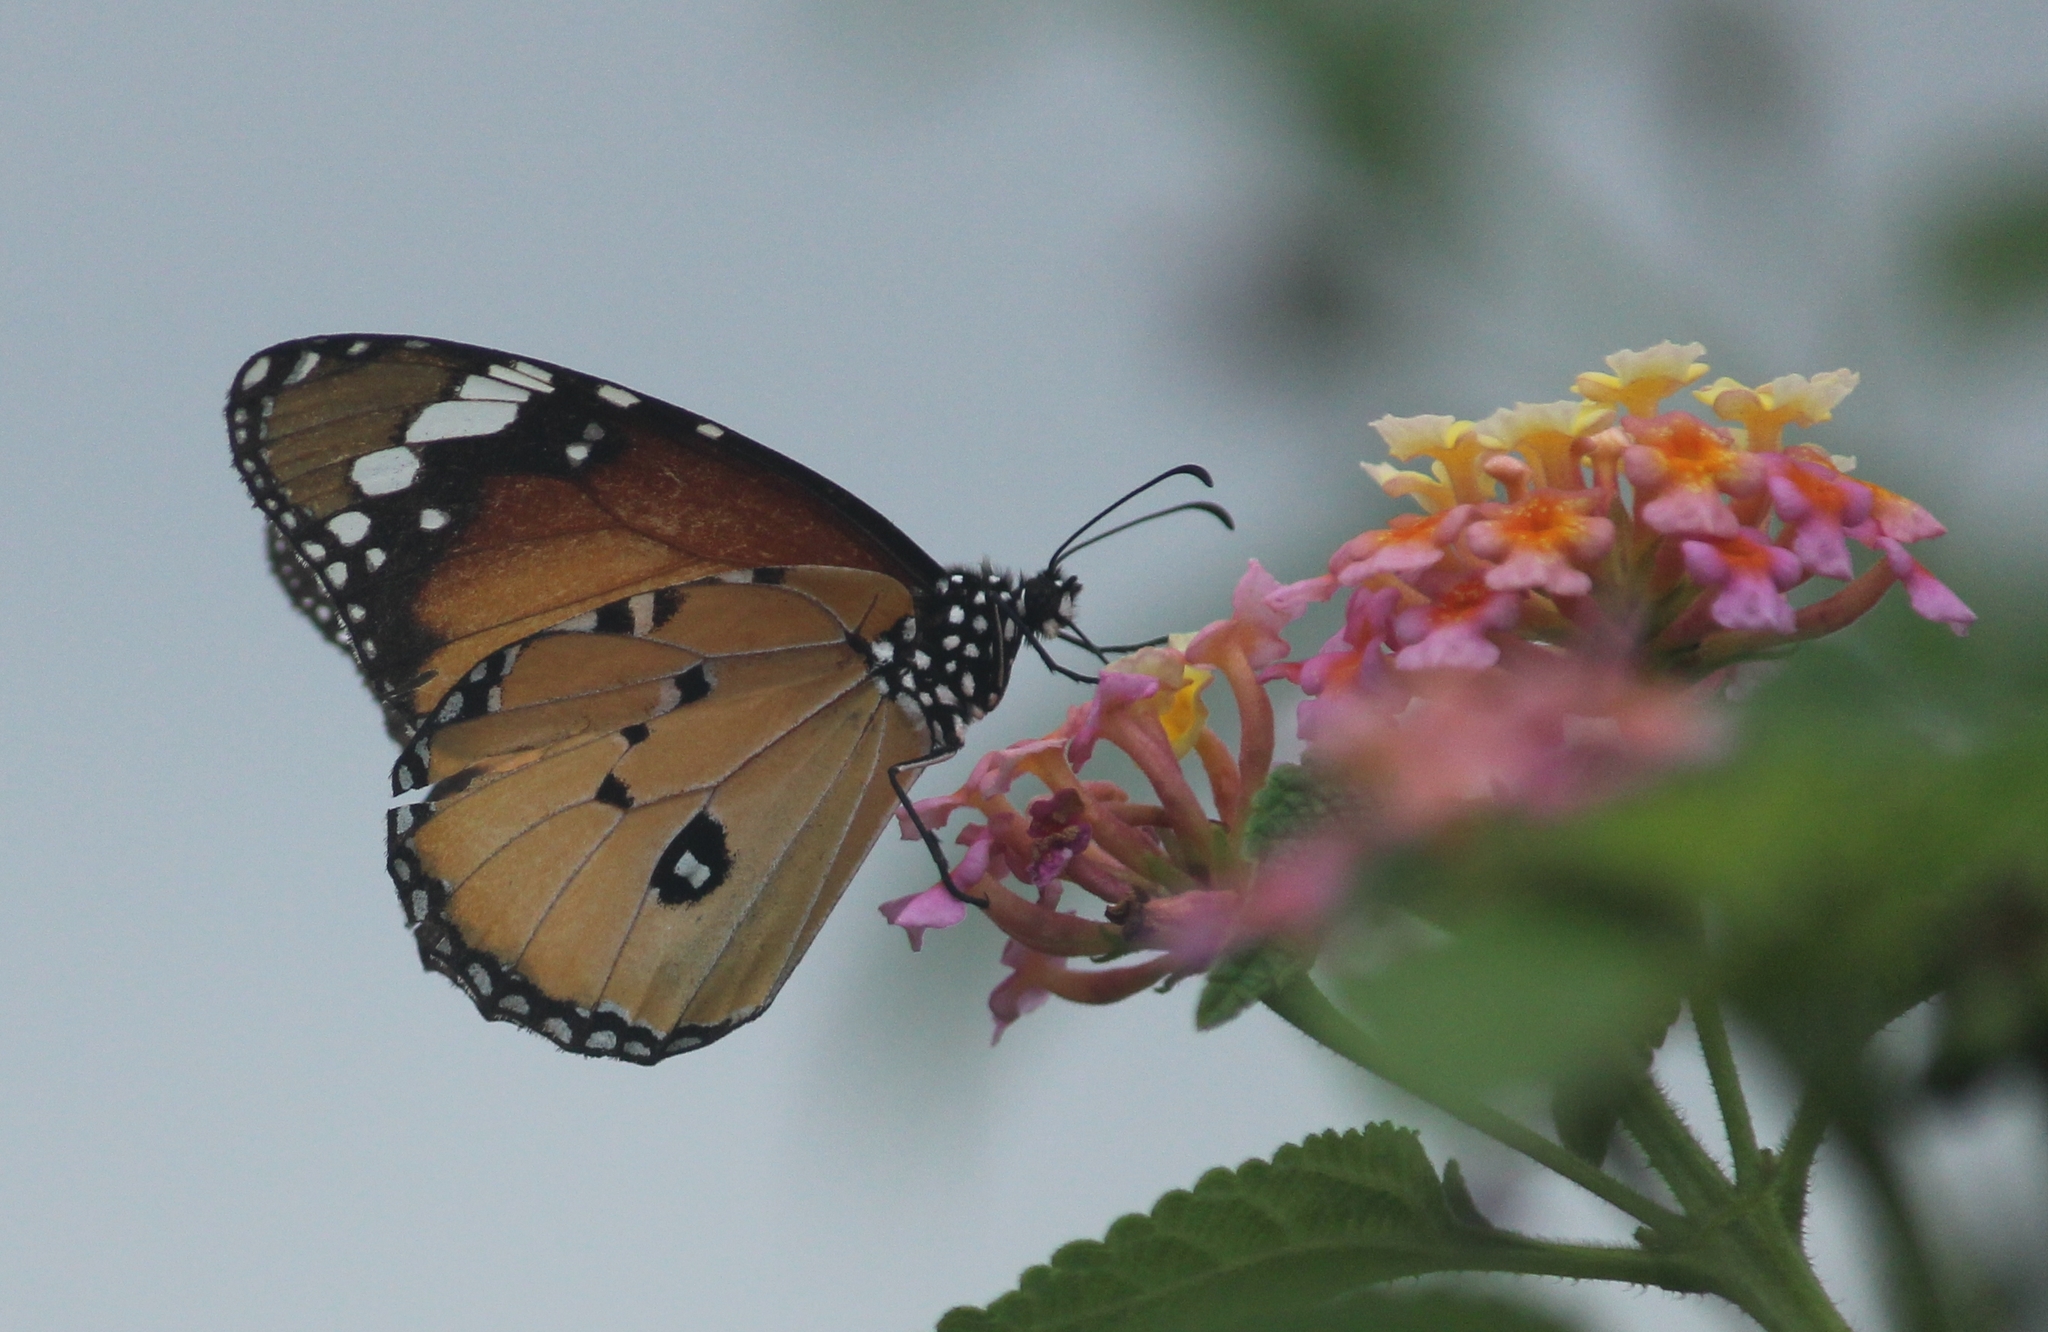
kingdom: Animalia
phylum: Arthropoda
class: Insecta
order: Lepidoptera
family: Nymphalidae
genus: Danaus
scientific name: Danaus chrysippus
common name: Plain tiger
